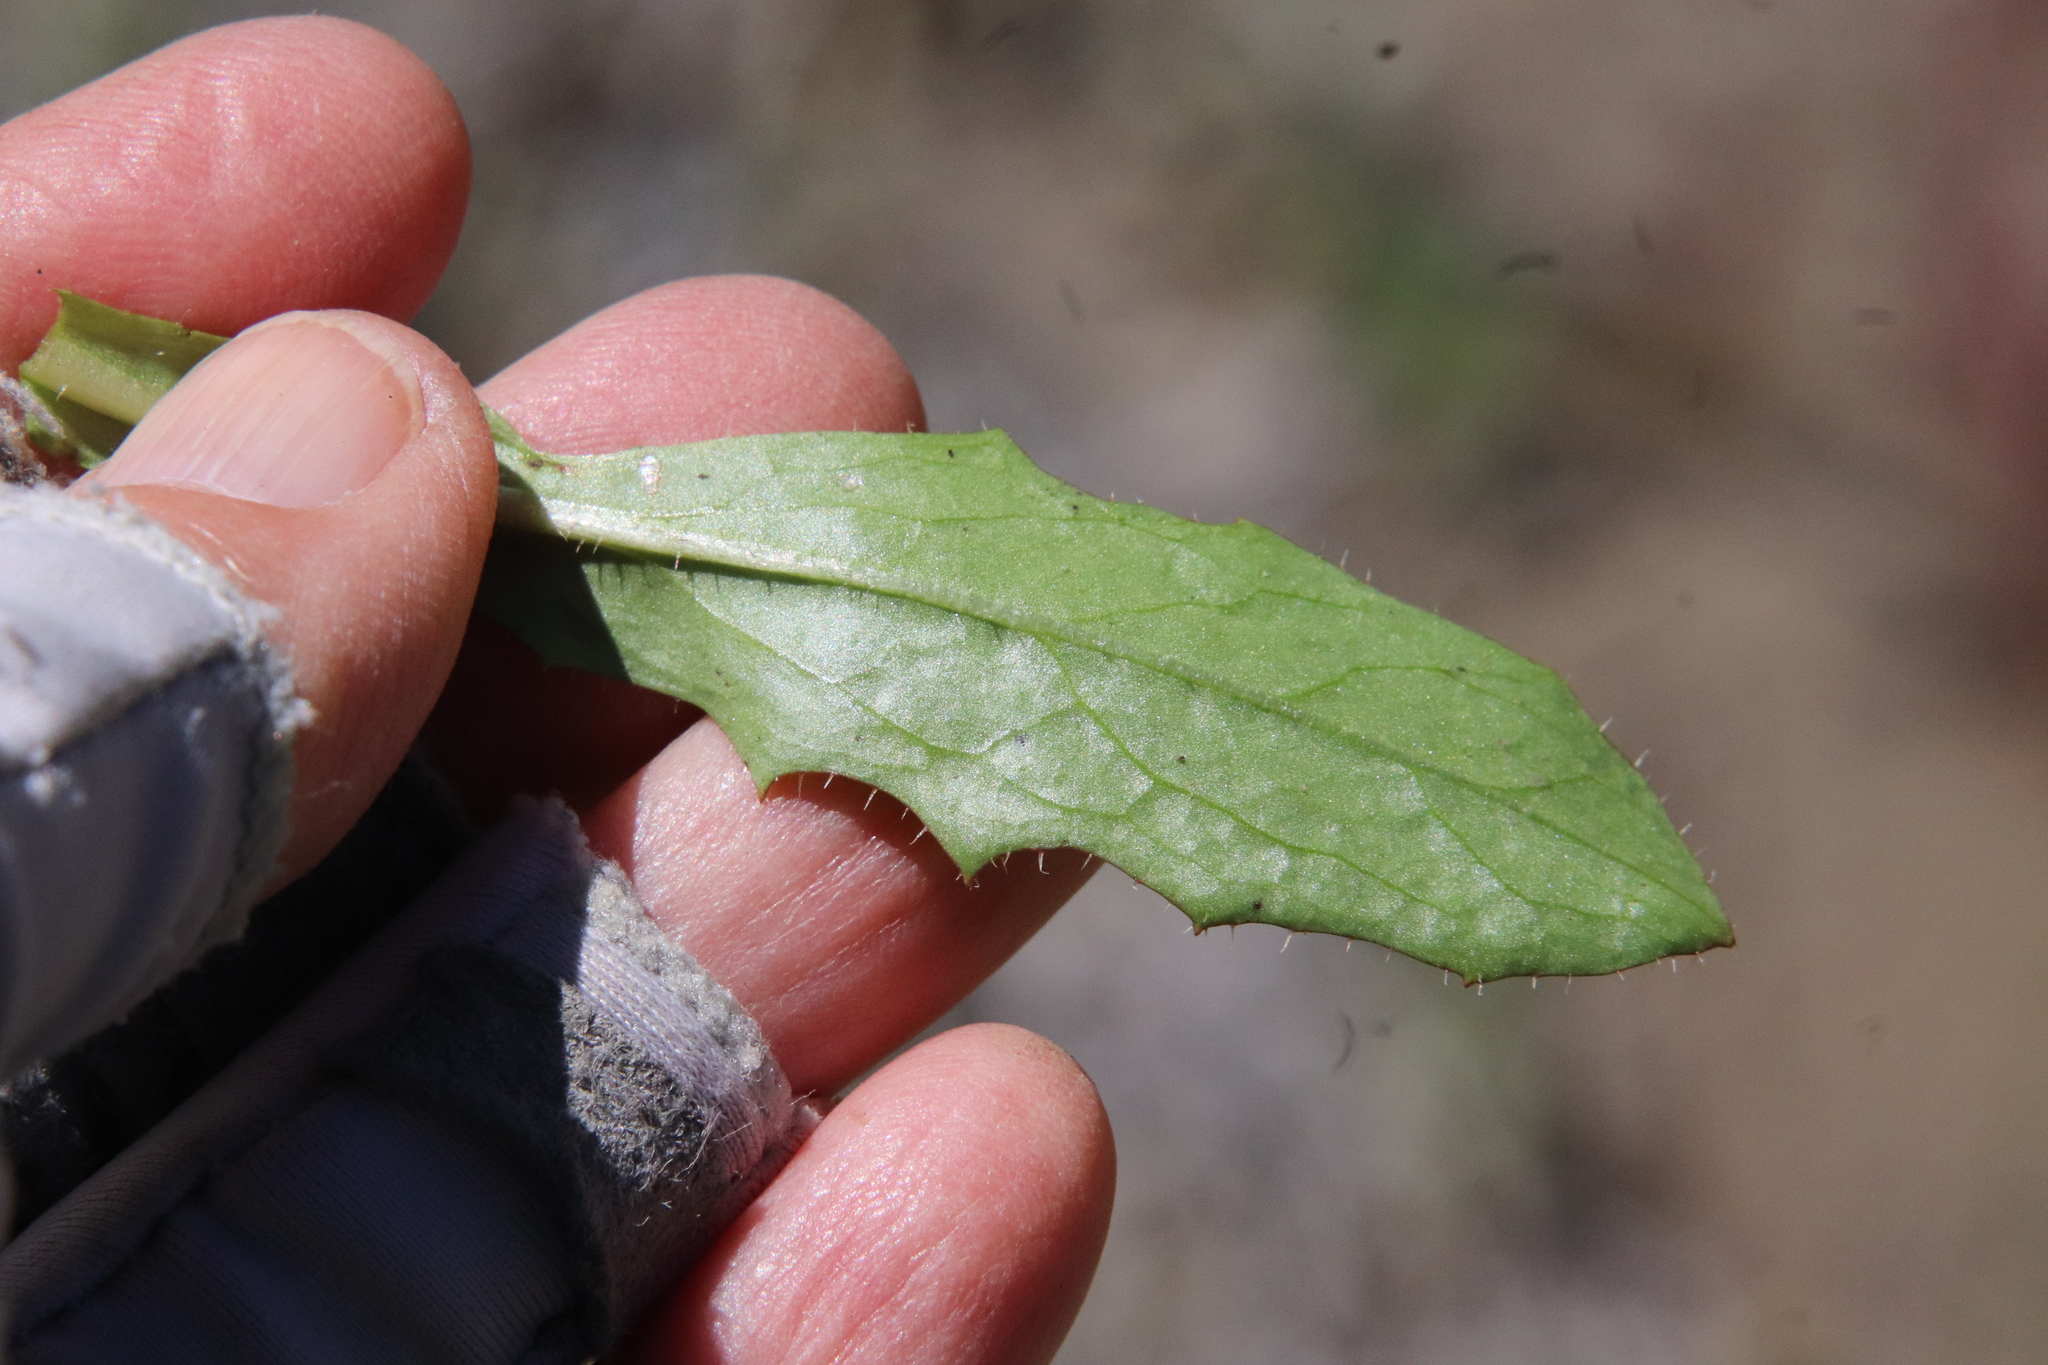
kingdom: Plantae
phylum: Tracheophyta
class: Magnoliopsida
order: Asterales
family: Asteraceae
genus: Hypochaeris
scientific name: Hypochaeris glabra
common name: Smooth catsear
